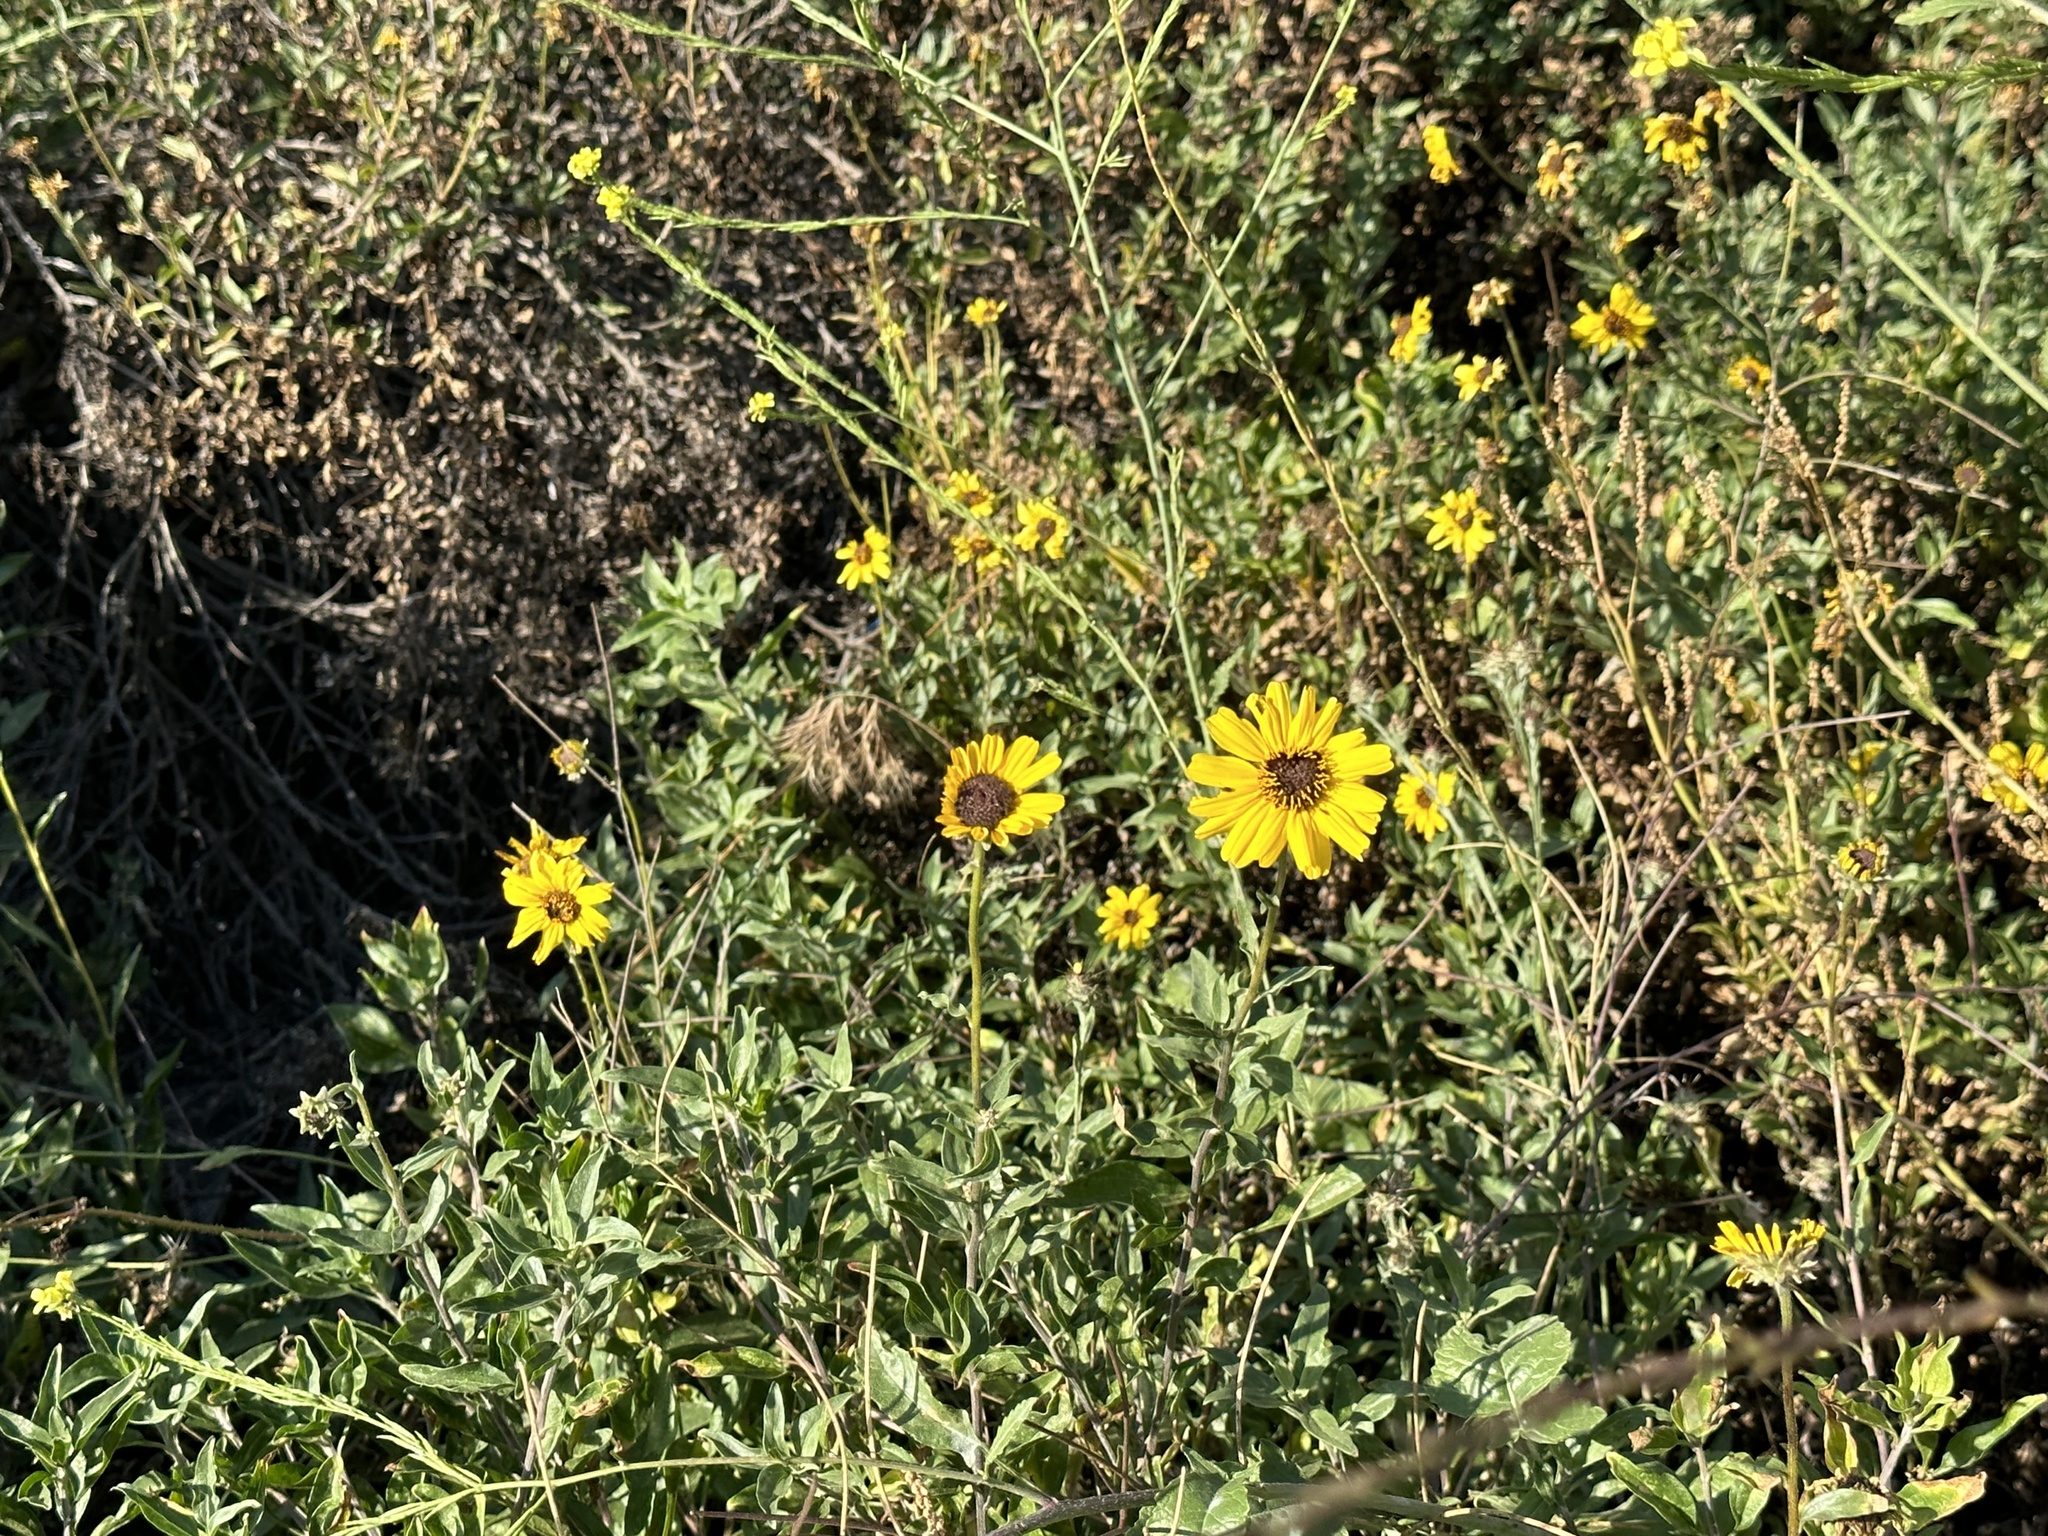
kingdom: Plantae
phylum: Tracheophyta
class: Magnoliopsida
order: Asterales
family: Asteraceae
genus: Encelia
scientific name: Encelia californica
